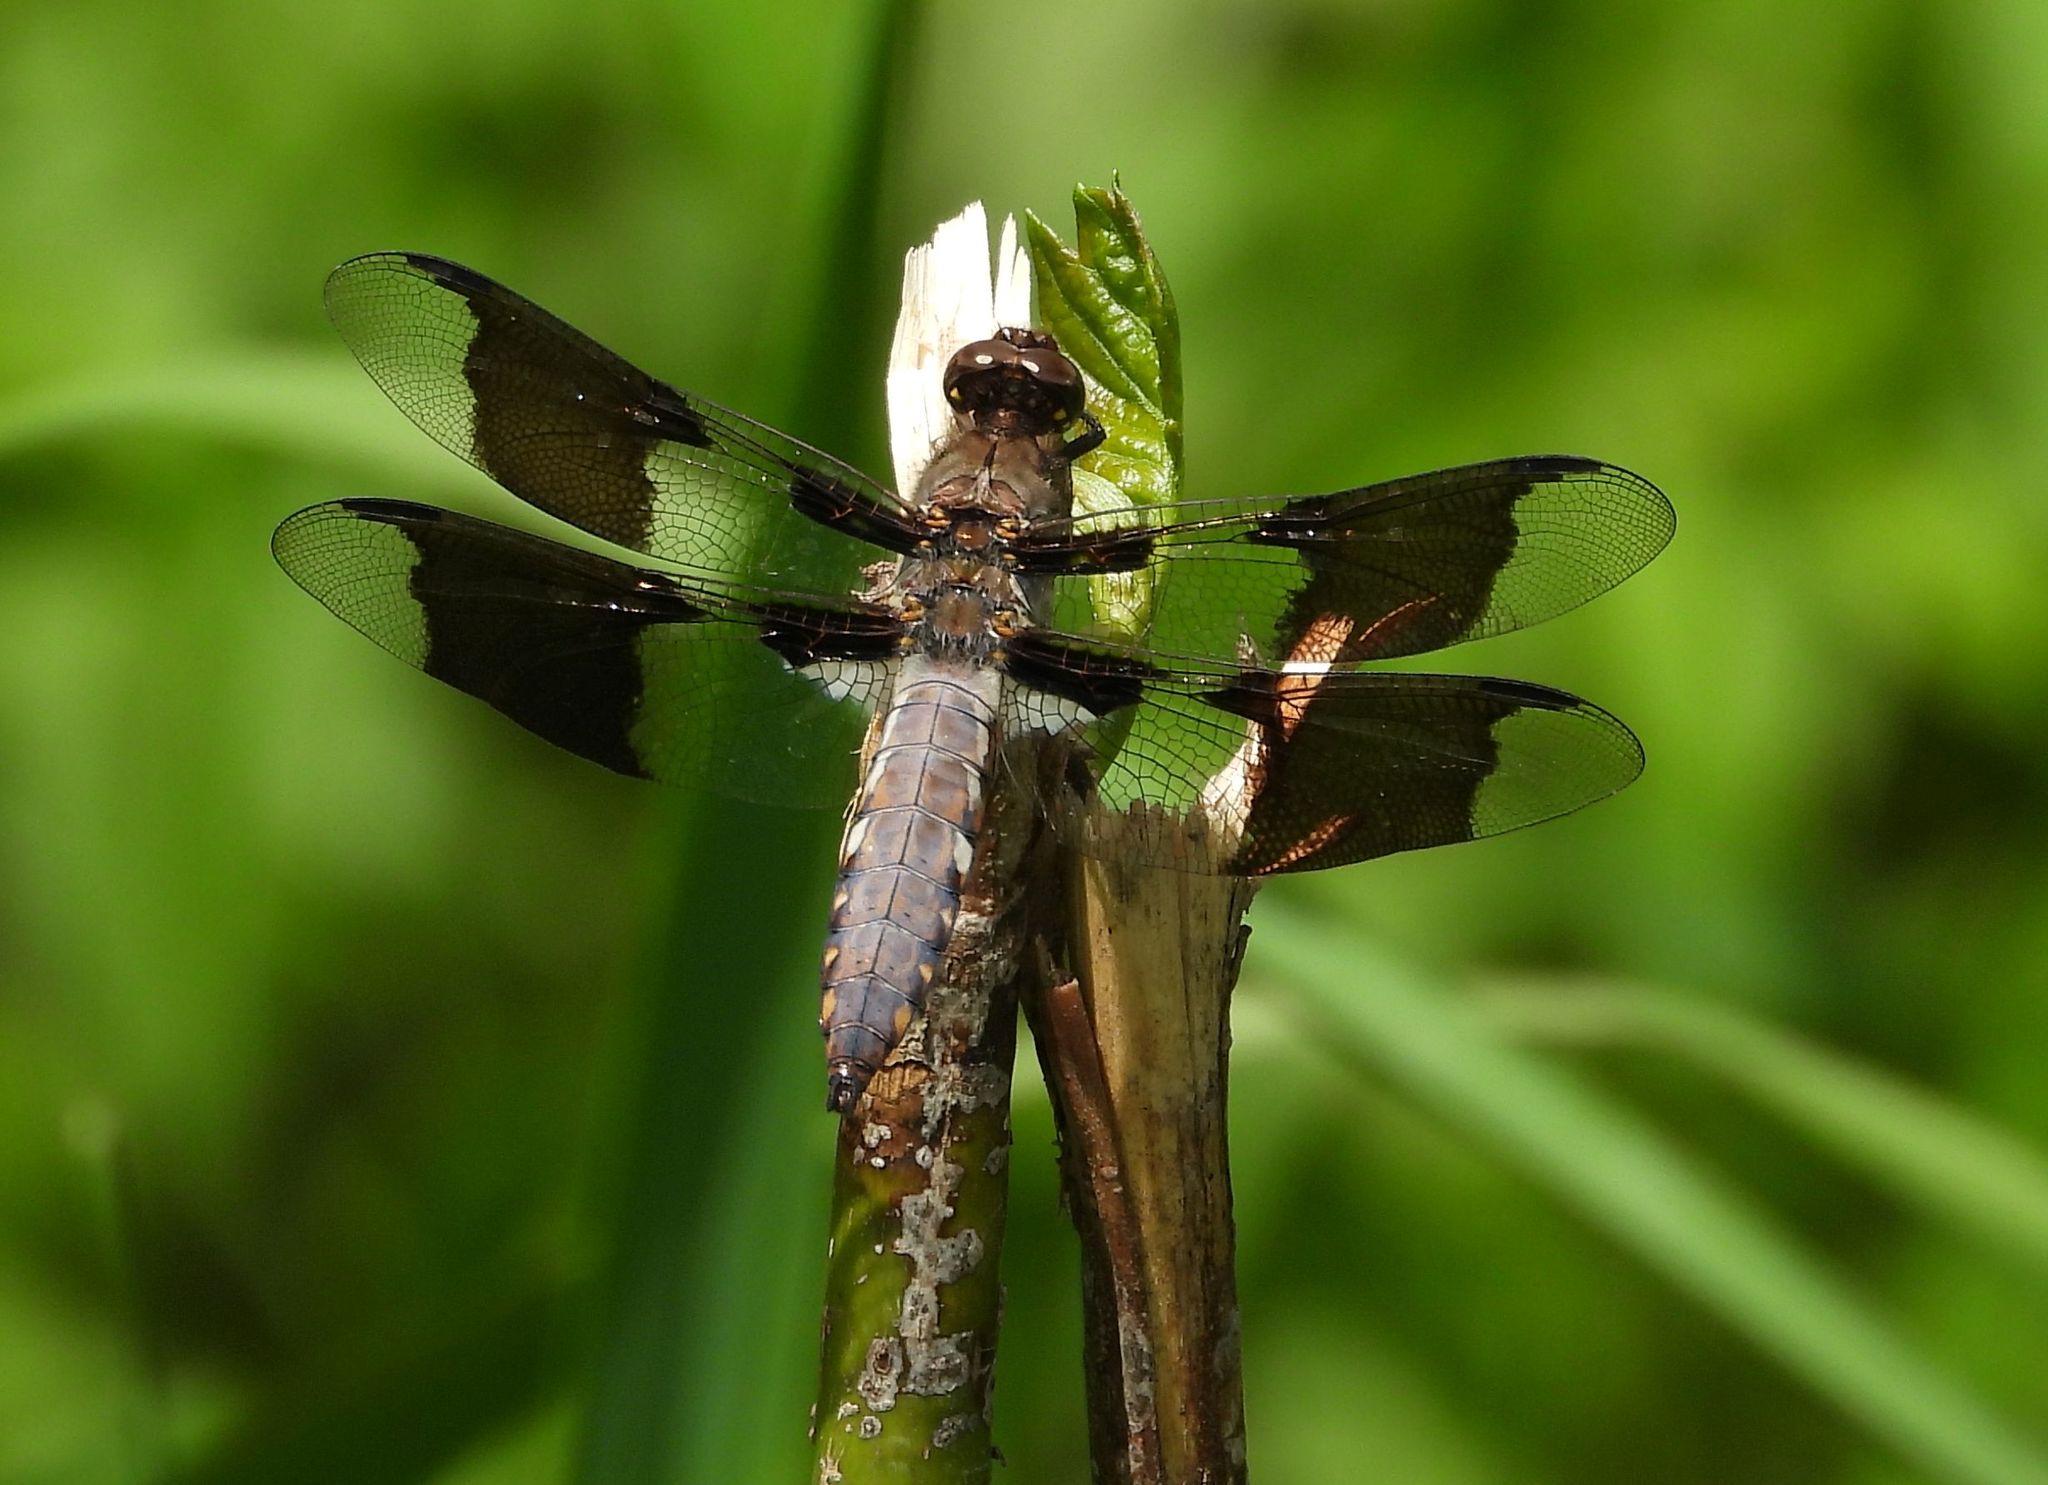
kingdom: Animalia
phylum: Arthropoda
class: Insecta
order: Odonata
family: Libellulidae
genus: Plathemis
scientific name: Plathemis lydia
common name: Common whitetail
